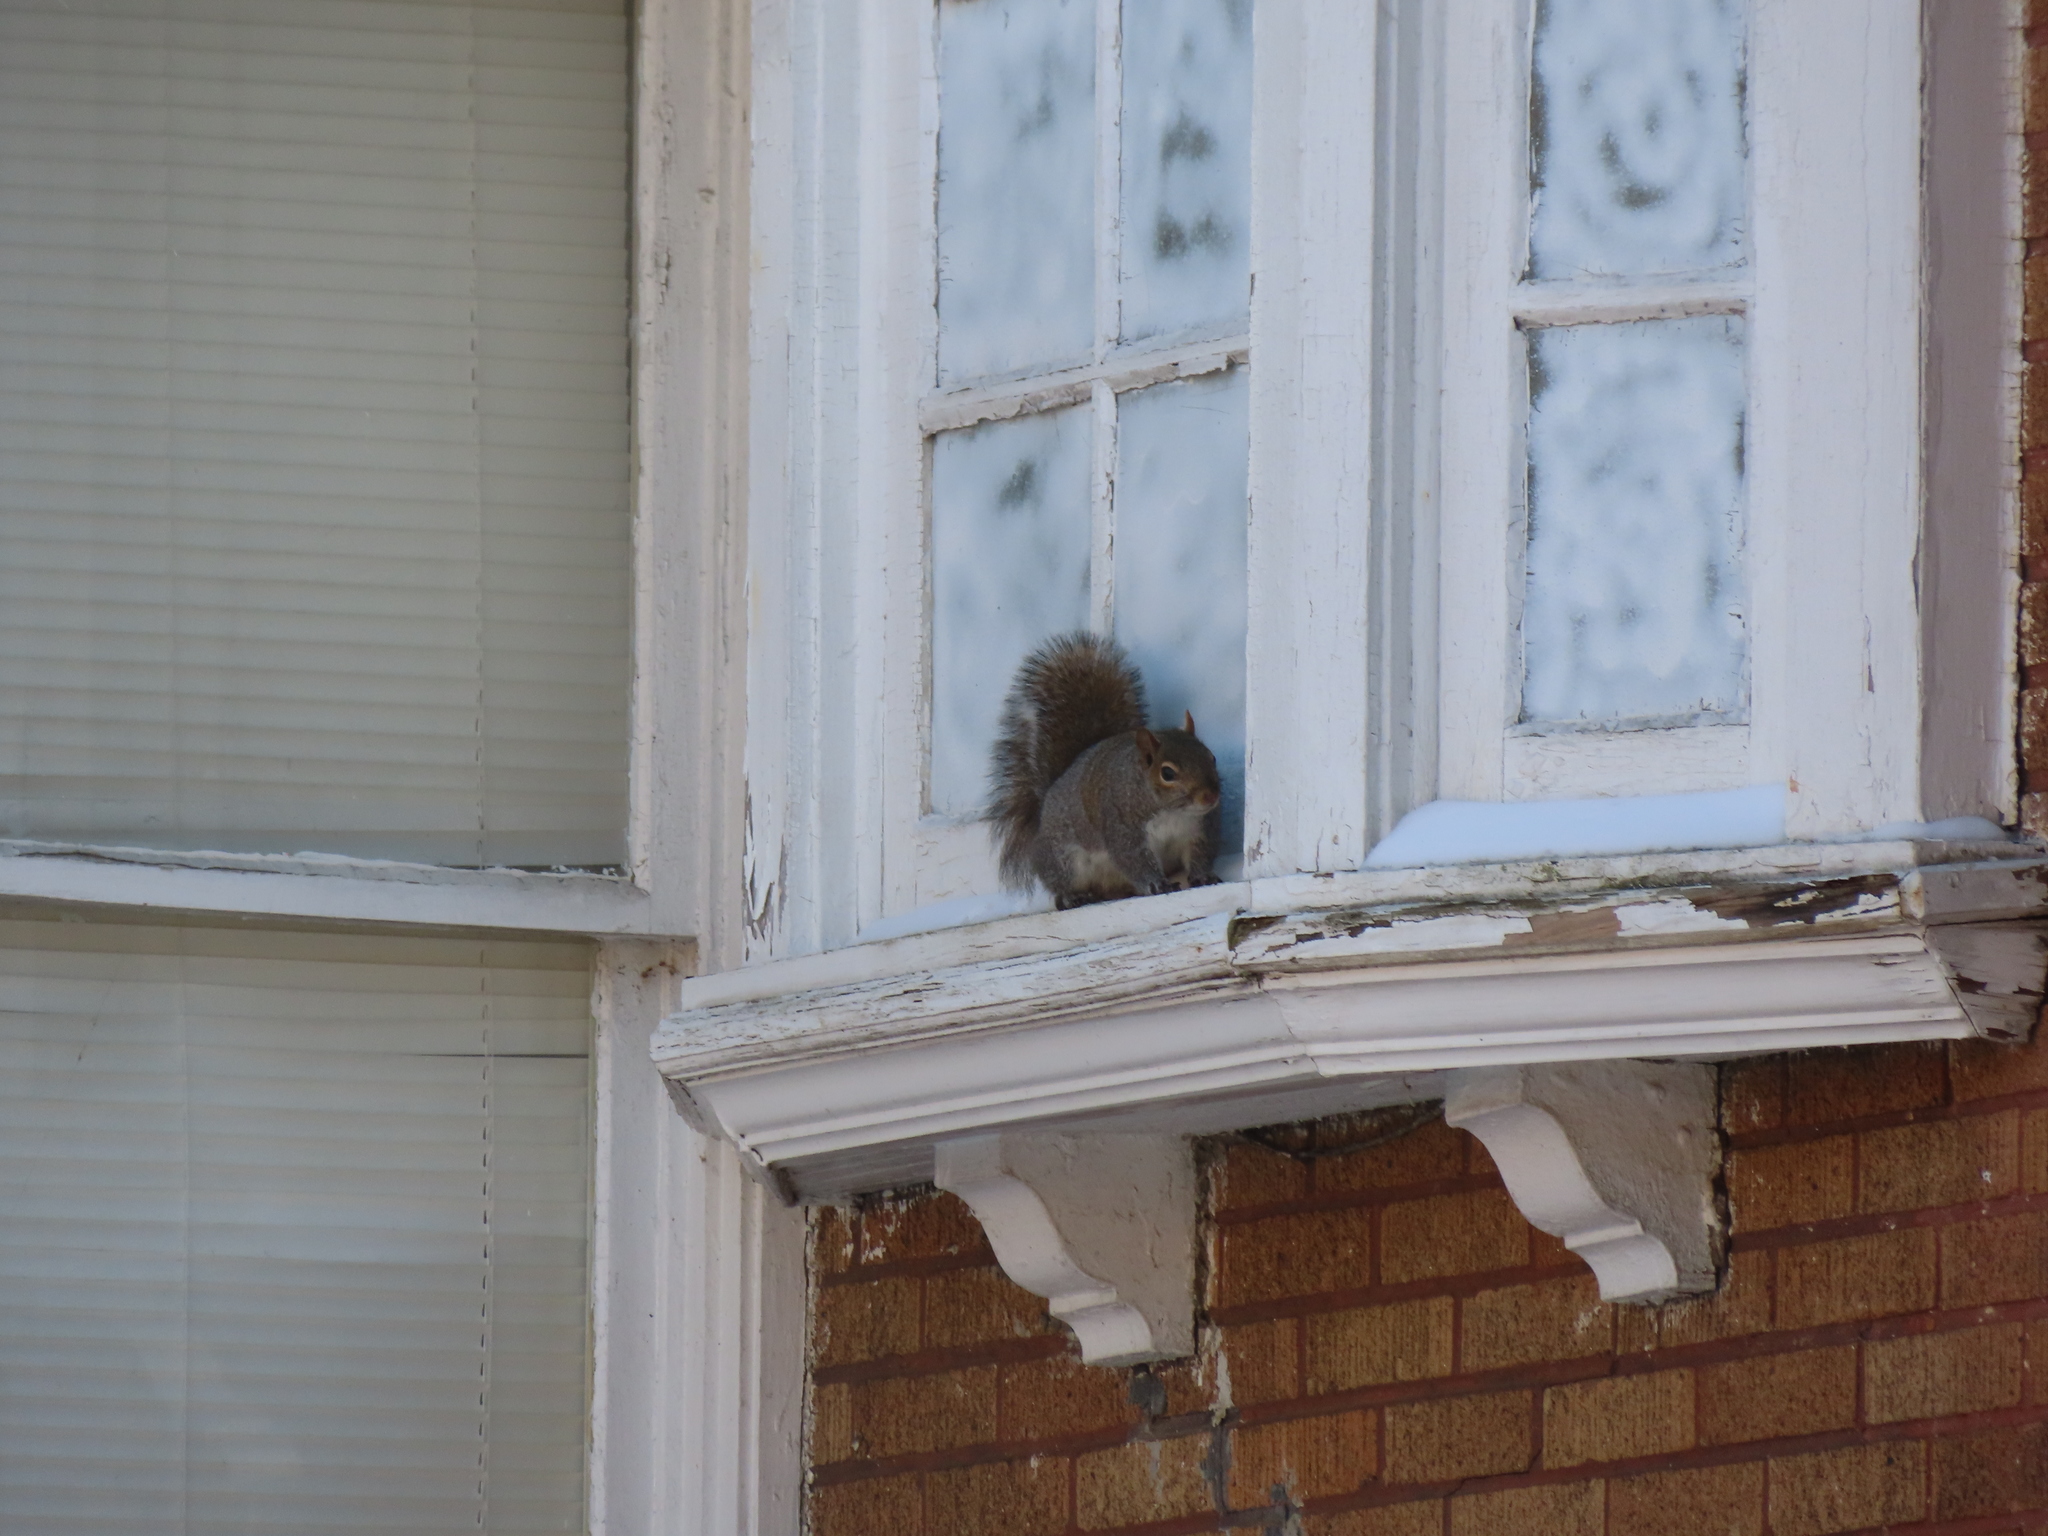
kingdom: Animalia
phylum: Chordata
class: Mammalia
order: Rodentia
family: Sciuridae
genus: Sciurus
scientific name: Sciurus carolinensis
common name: Eastern gray squirrel
